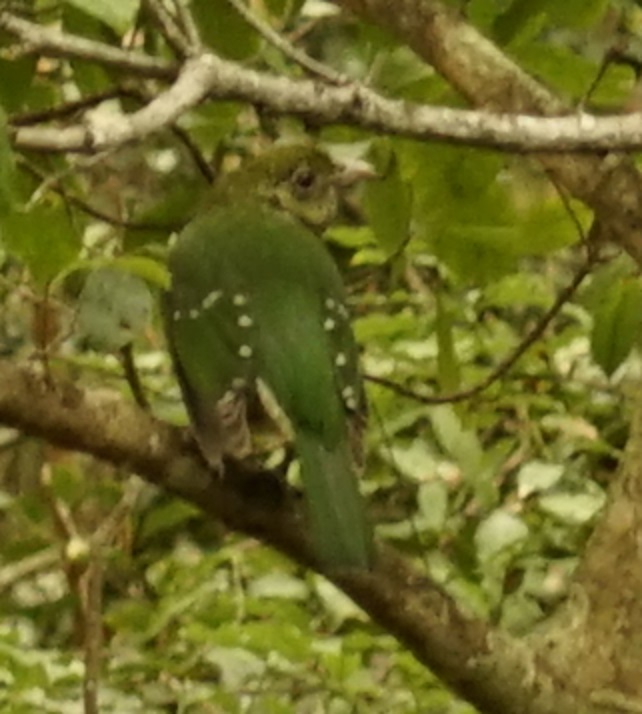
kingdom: Animalia
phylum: Chordata
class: Aves
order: Passeriformes
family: Ptilonorhynchidae
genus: Ailuroedus
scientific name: Ailuroedus crassirostris
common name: Green catbird
